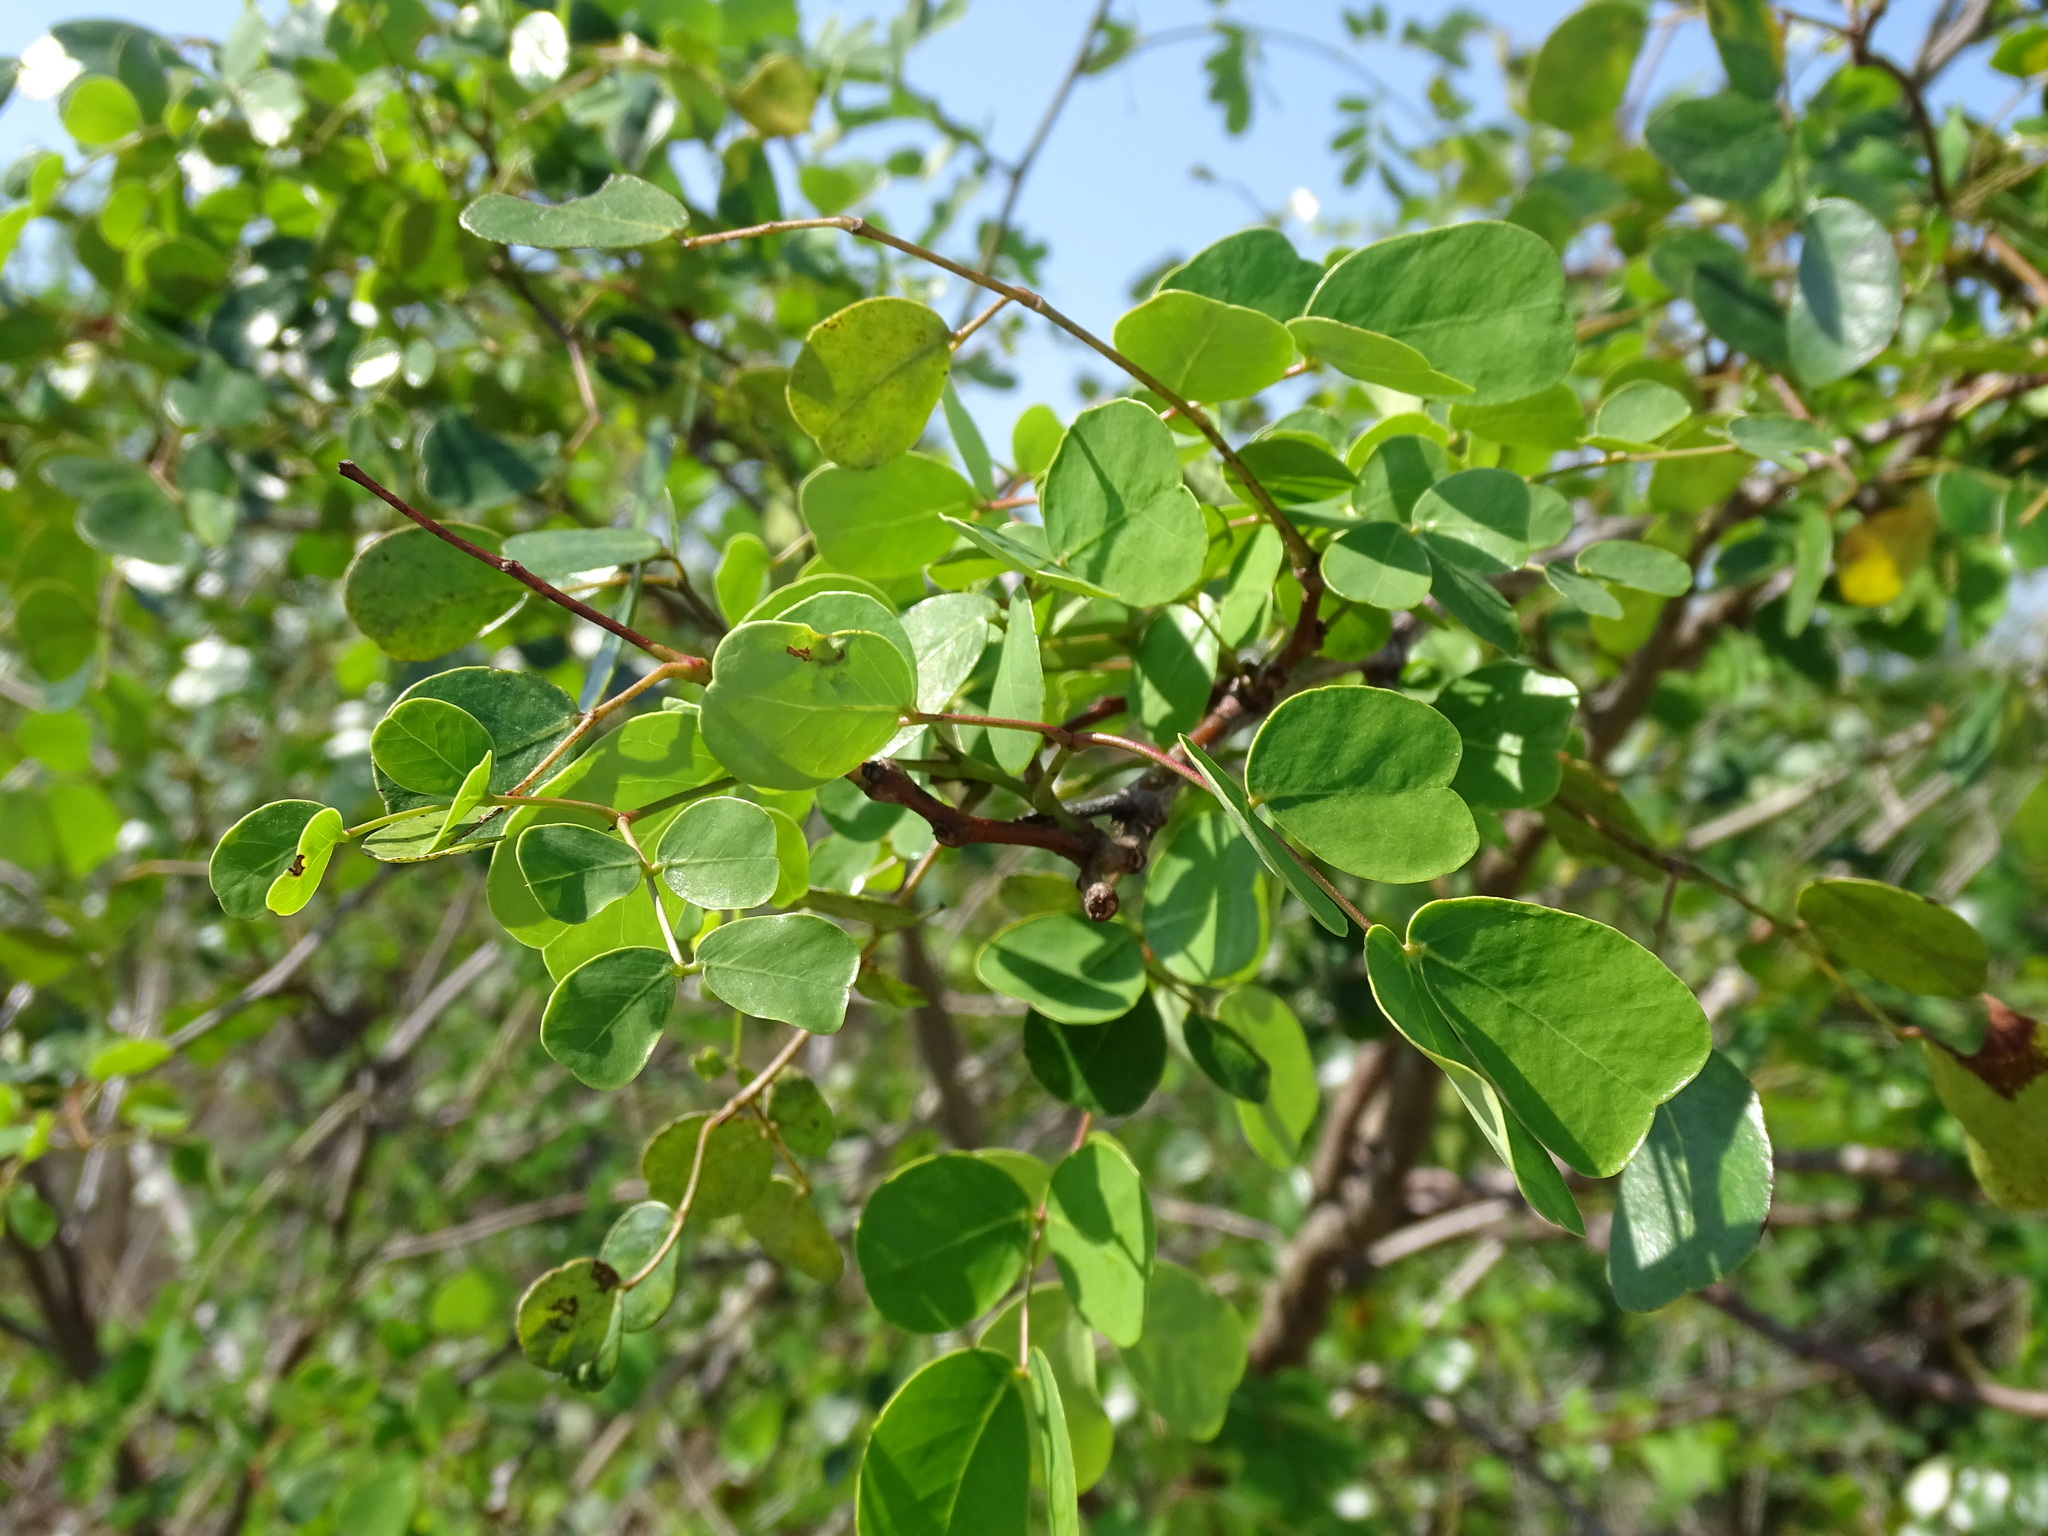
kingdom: Plantae
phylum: Tracheophyta
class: Magnoliopsida
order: Fabales
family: Fabaceae
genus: Tara
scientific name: Tara vesicaria
